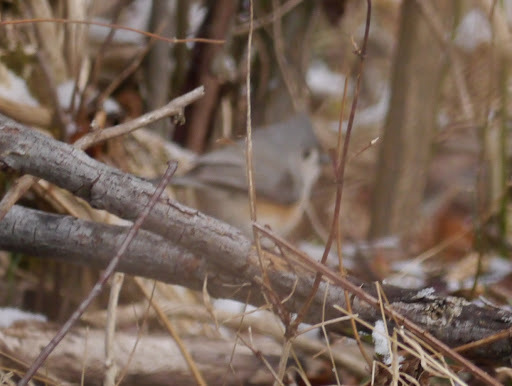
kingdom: Animalia
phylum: Chordata
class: Aves
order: Passeriformes
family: Paridae
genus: Baeolophus
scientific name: Baeolophus bicolor
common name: Tufted titmouse
